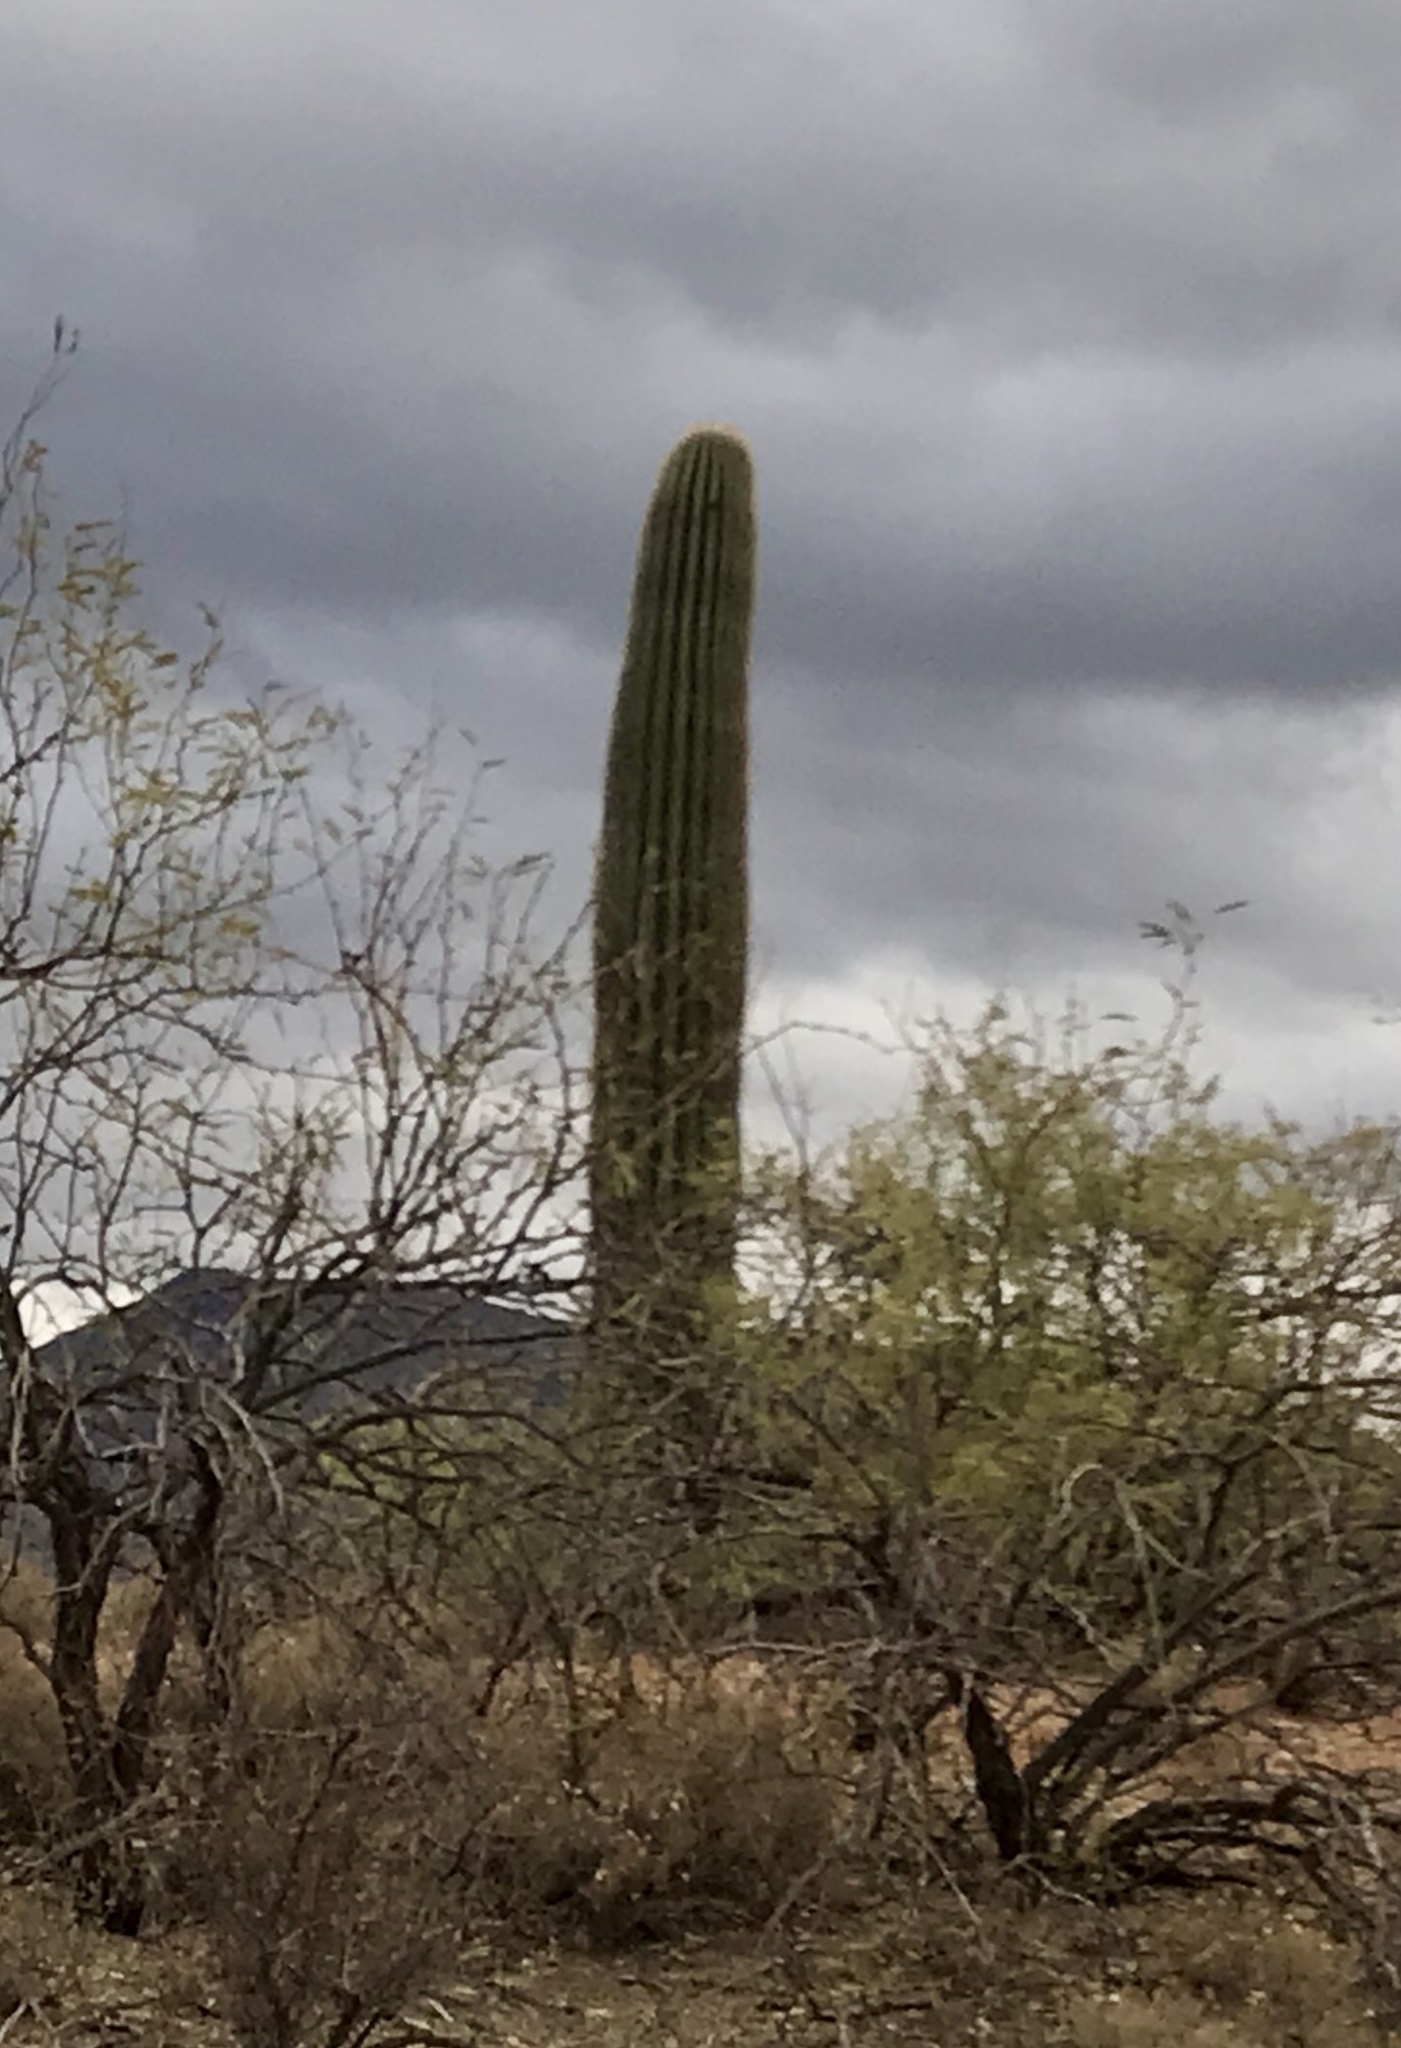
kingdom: Plantae
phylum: Tracheophyta
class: Magnoliopsida
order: Caryophyllales
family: Cactaceae
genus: Carnegiea
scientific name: Carnegiea gigantea
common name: Saguaro
